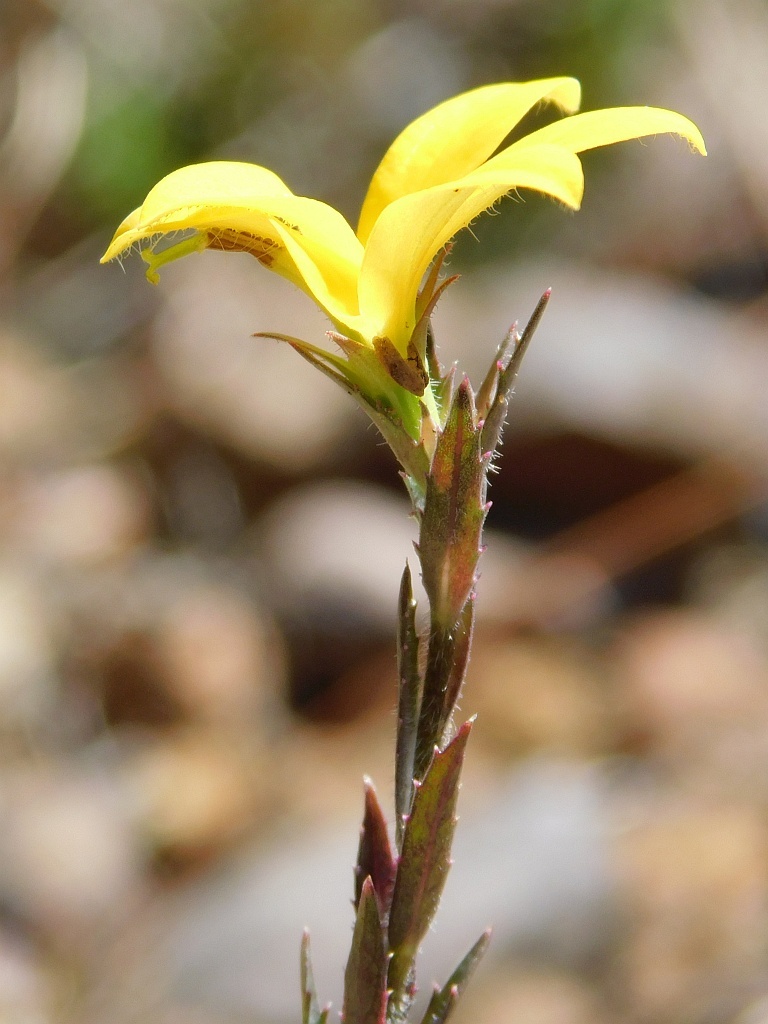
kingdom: Plantae
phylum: Tracheophyta
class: Magnoliopsida
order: Asterales
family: Campanulaceae
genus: Monopsis
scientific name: Monopsis lutea
